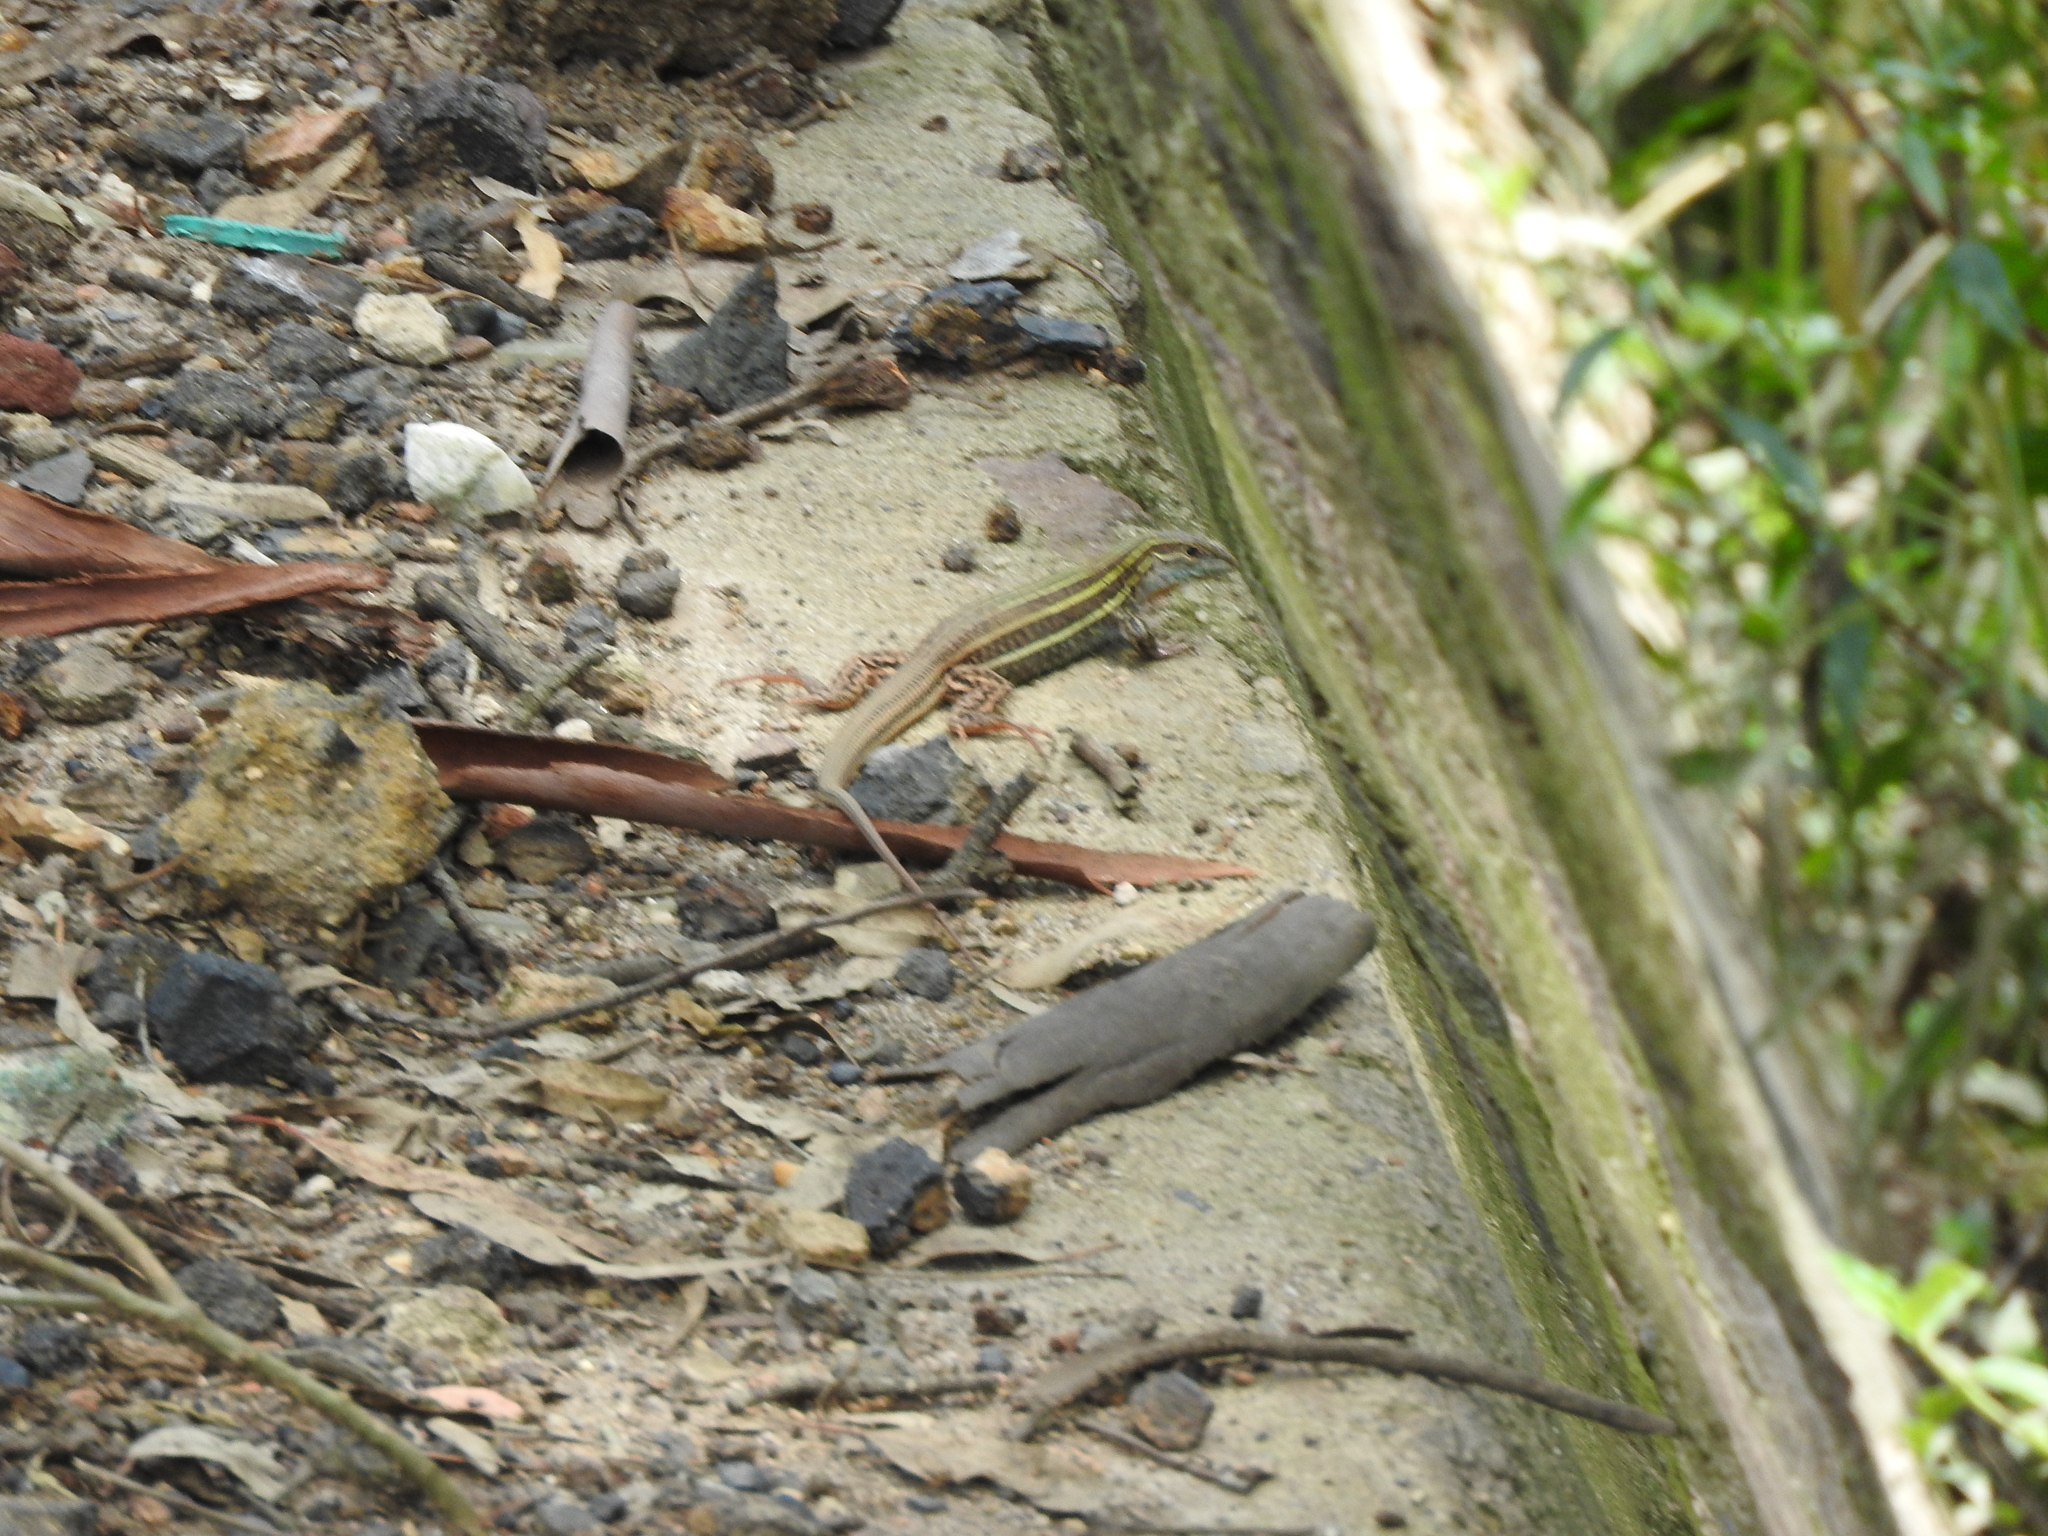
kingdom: Animalia
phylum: Chordata
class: Squamata
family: Teiidae
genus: Aspidoscelis
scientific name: Aspidoscelis gularis
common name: Eastern spotted whiptail
